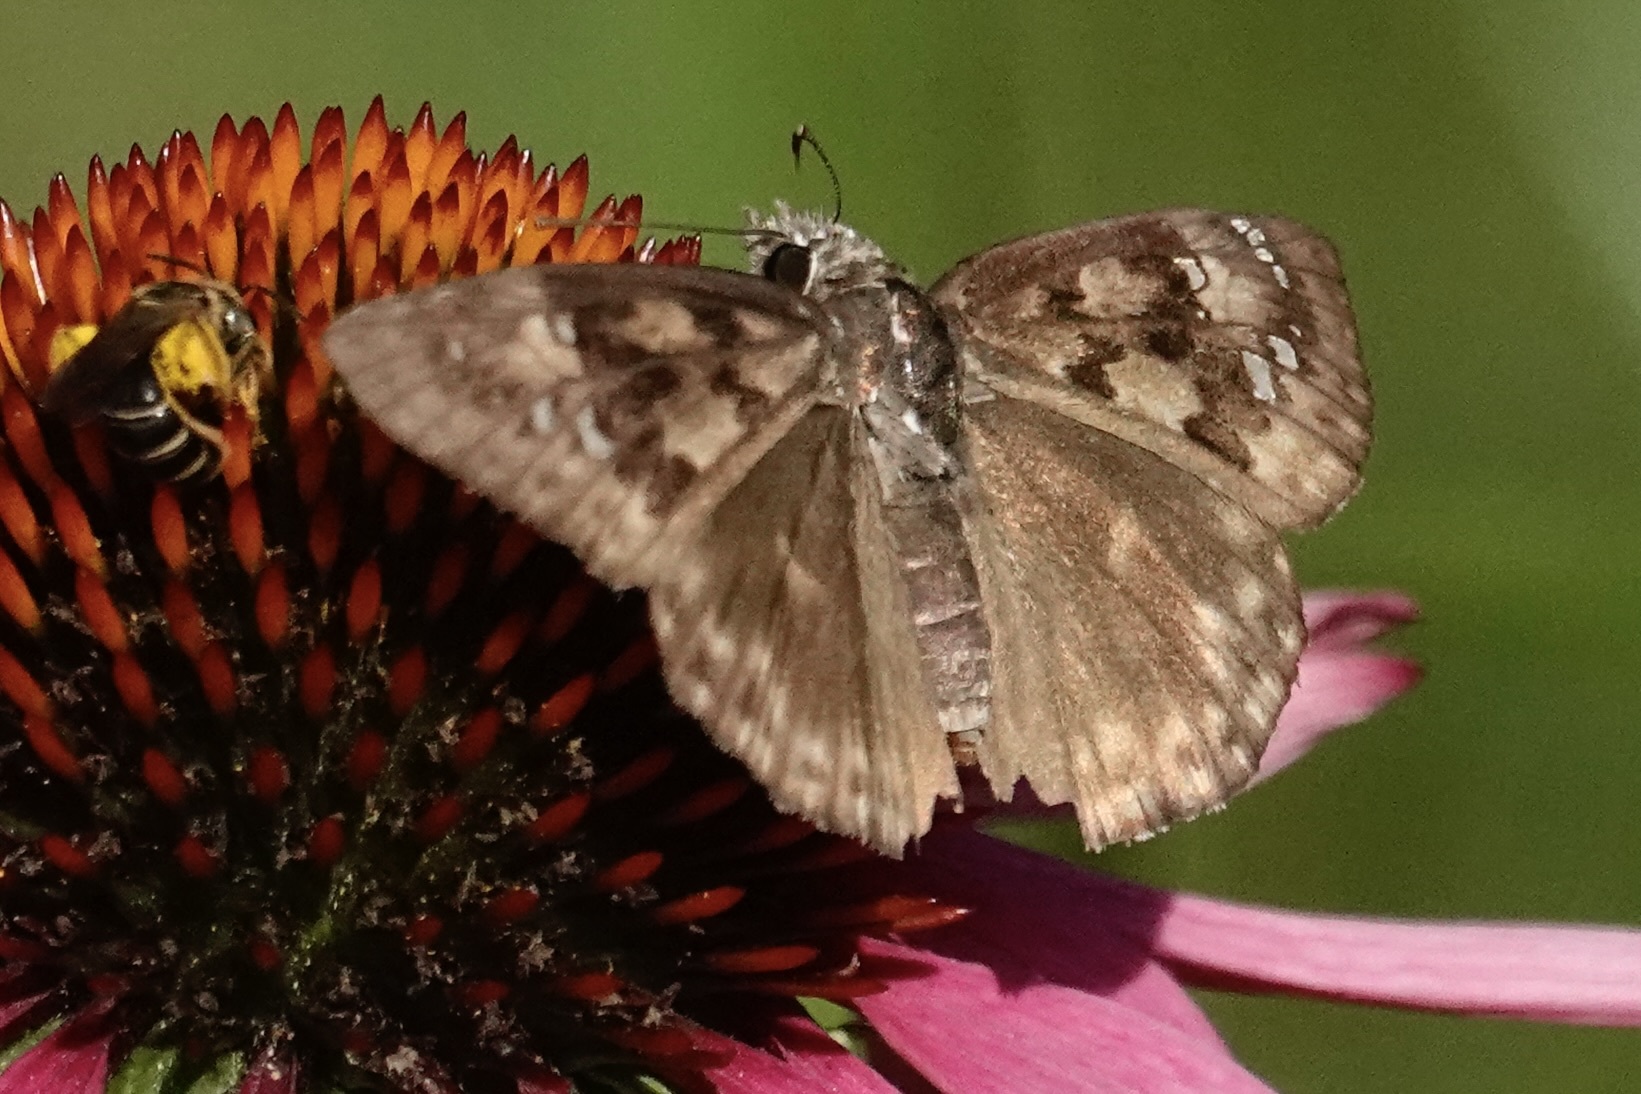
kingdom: Animalia
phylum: Arthropoda
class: Insecta
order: Lepidoptera
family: Hesperiidae
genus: Erynnis
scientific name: Erynnis horatius
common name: Horace's duskywing
